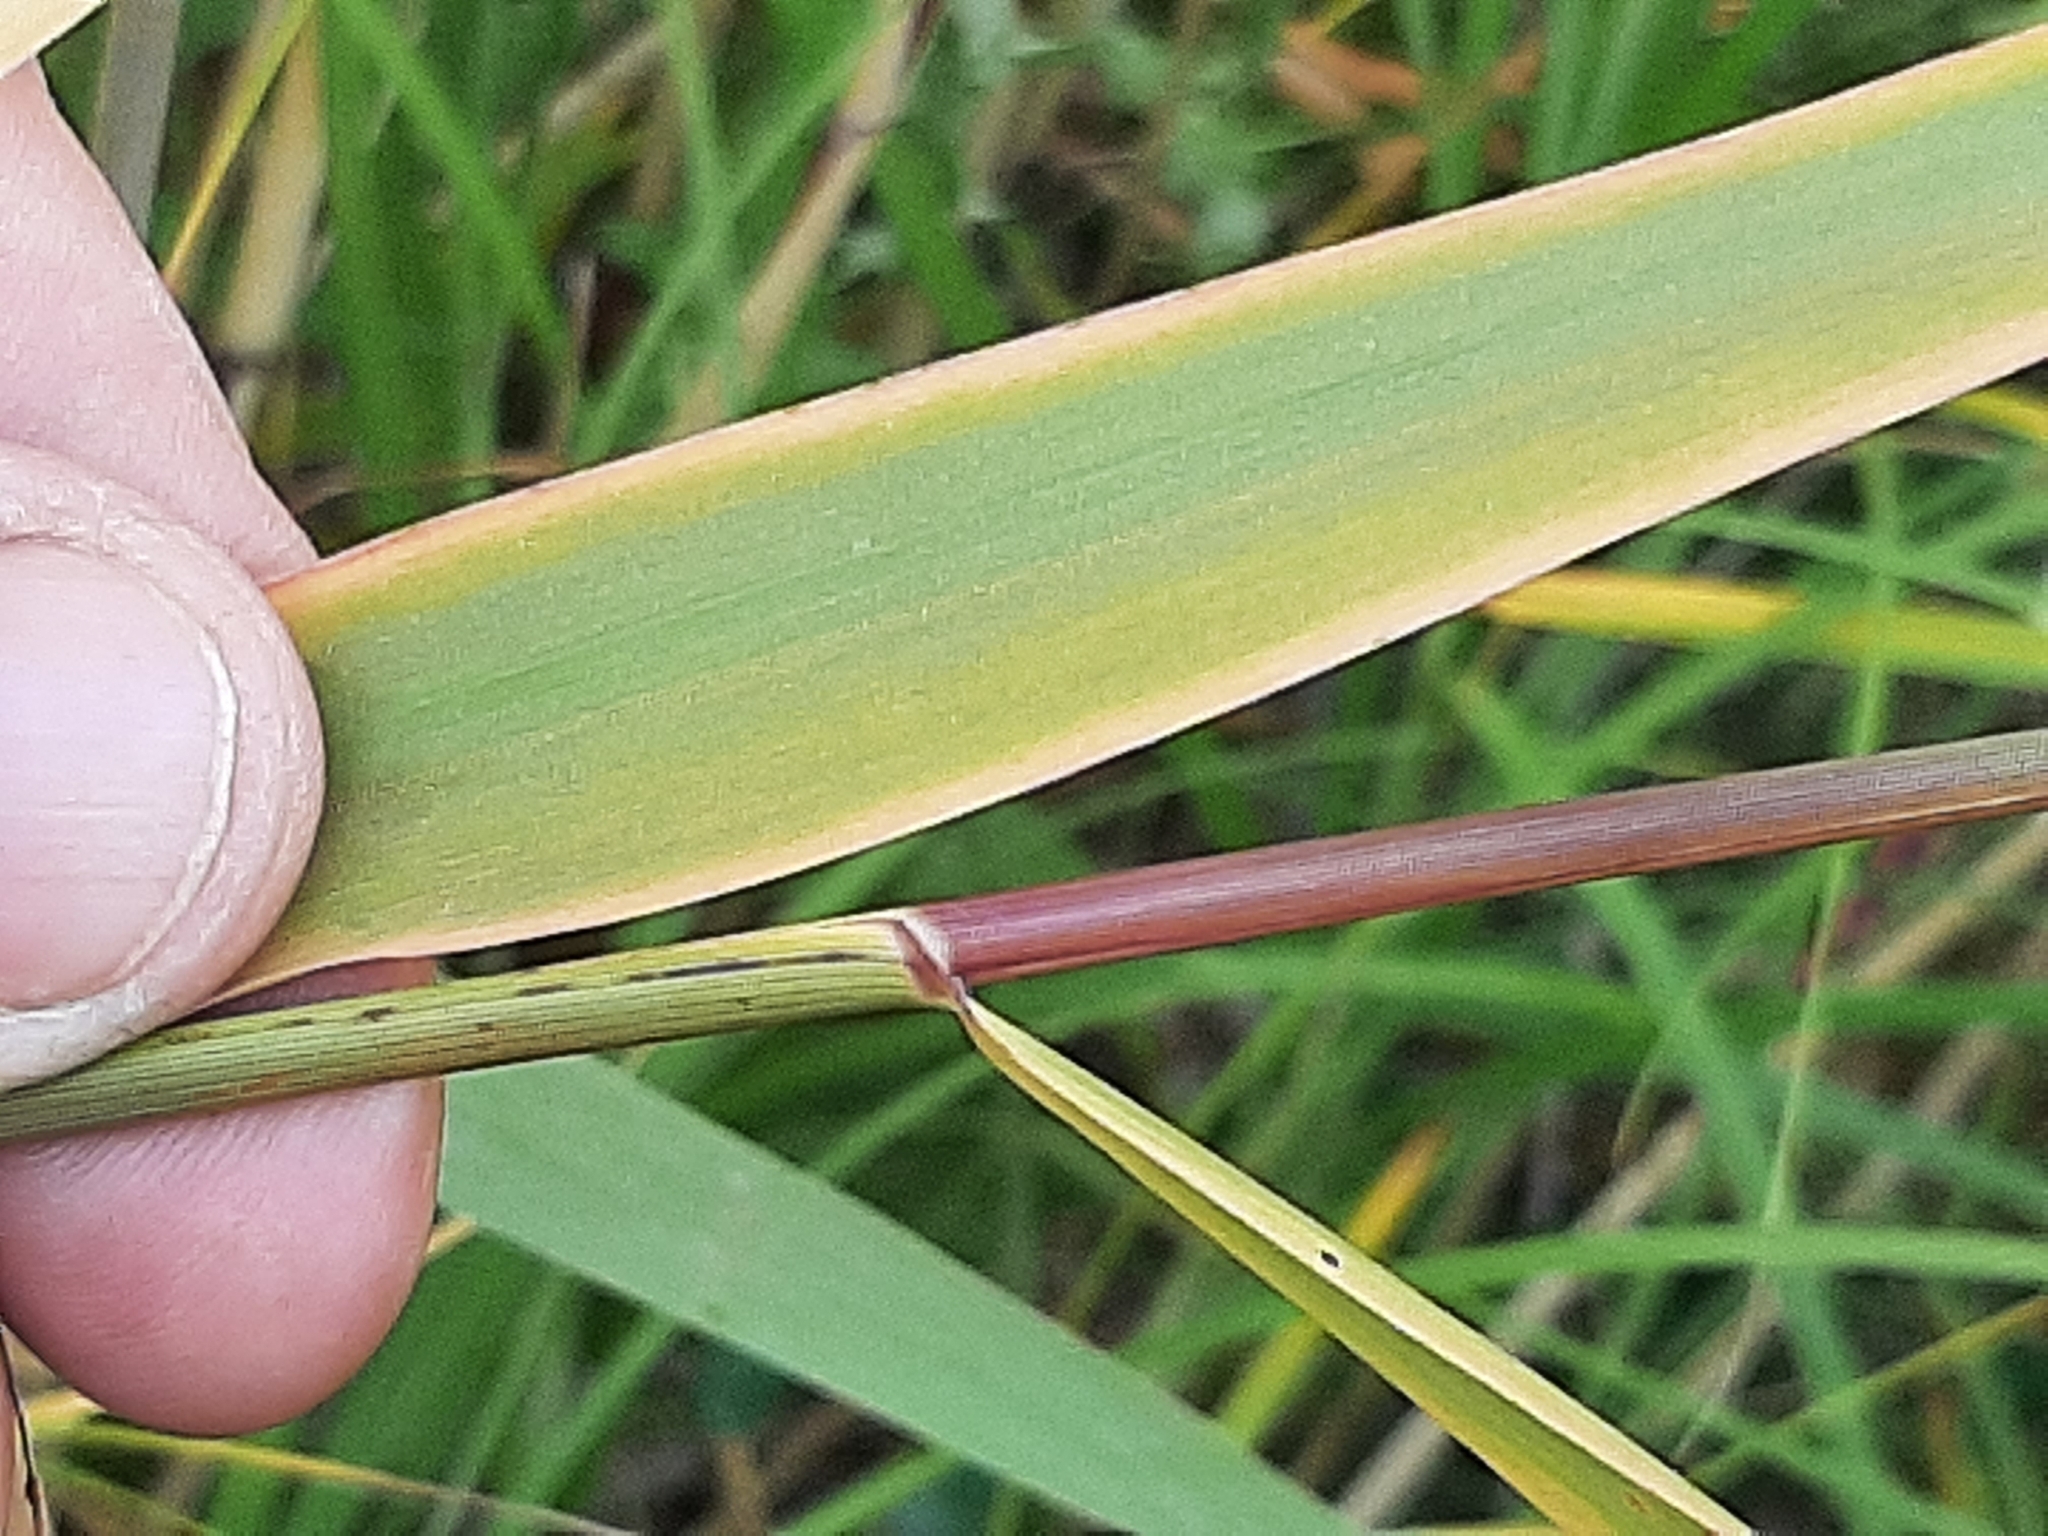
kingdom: Plantae
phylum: Tracheophyta
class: Liliopsida
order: Poales
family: Poaceae
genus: Phragmites
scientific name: Phragmites australis
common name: Common reed
